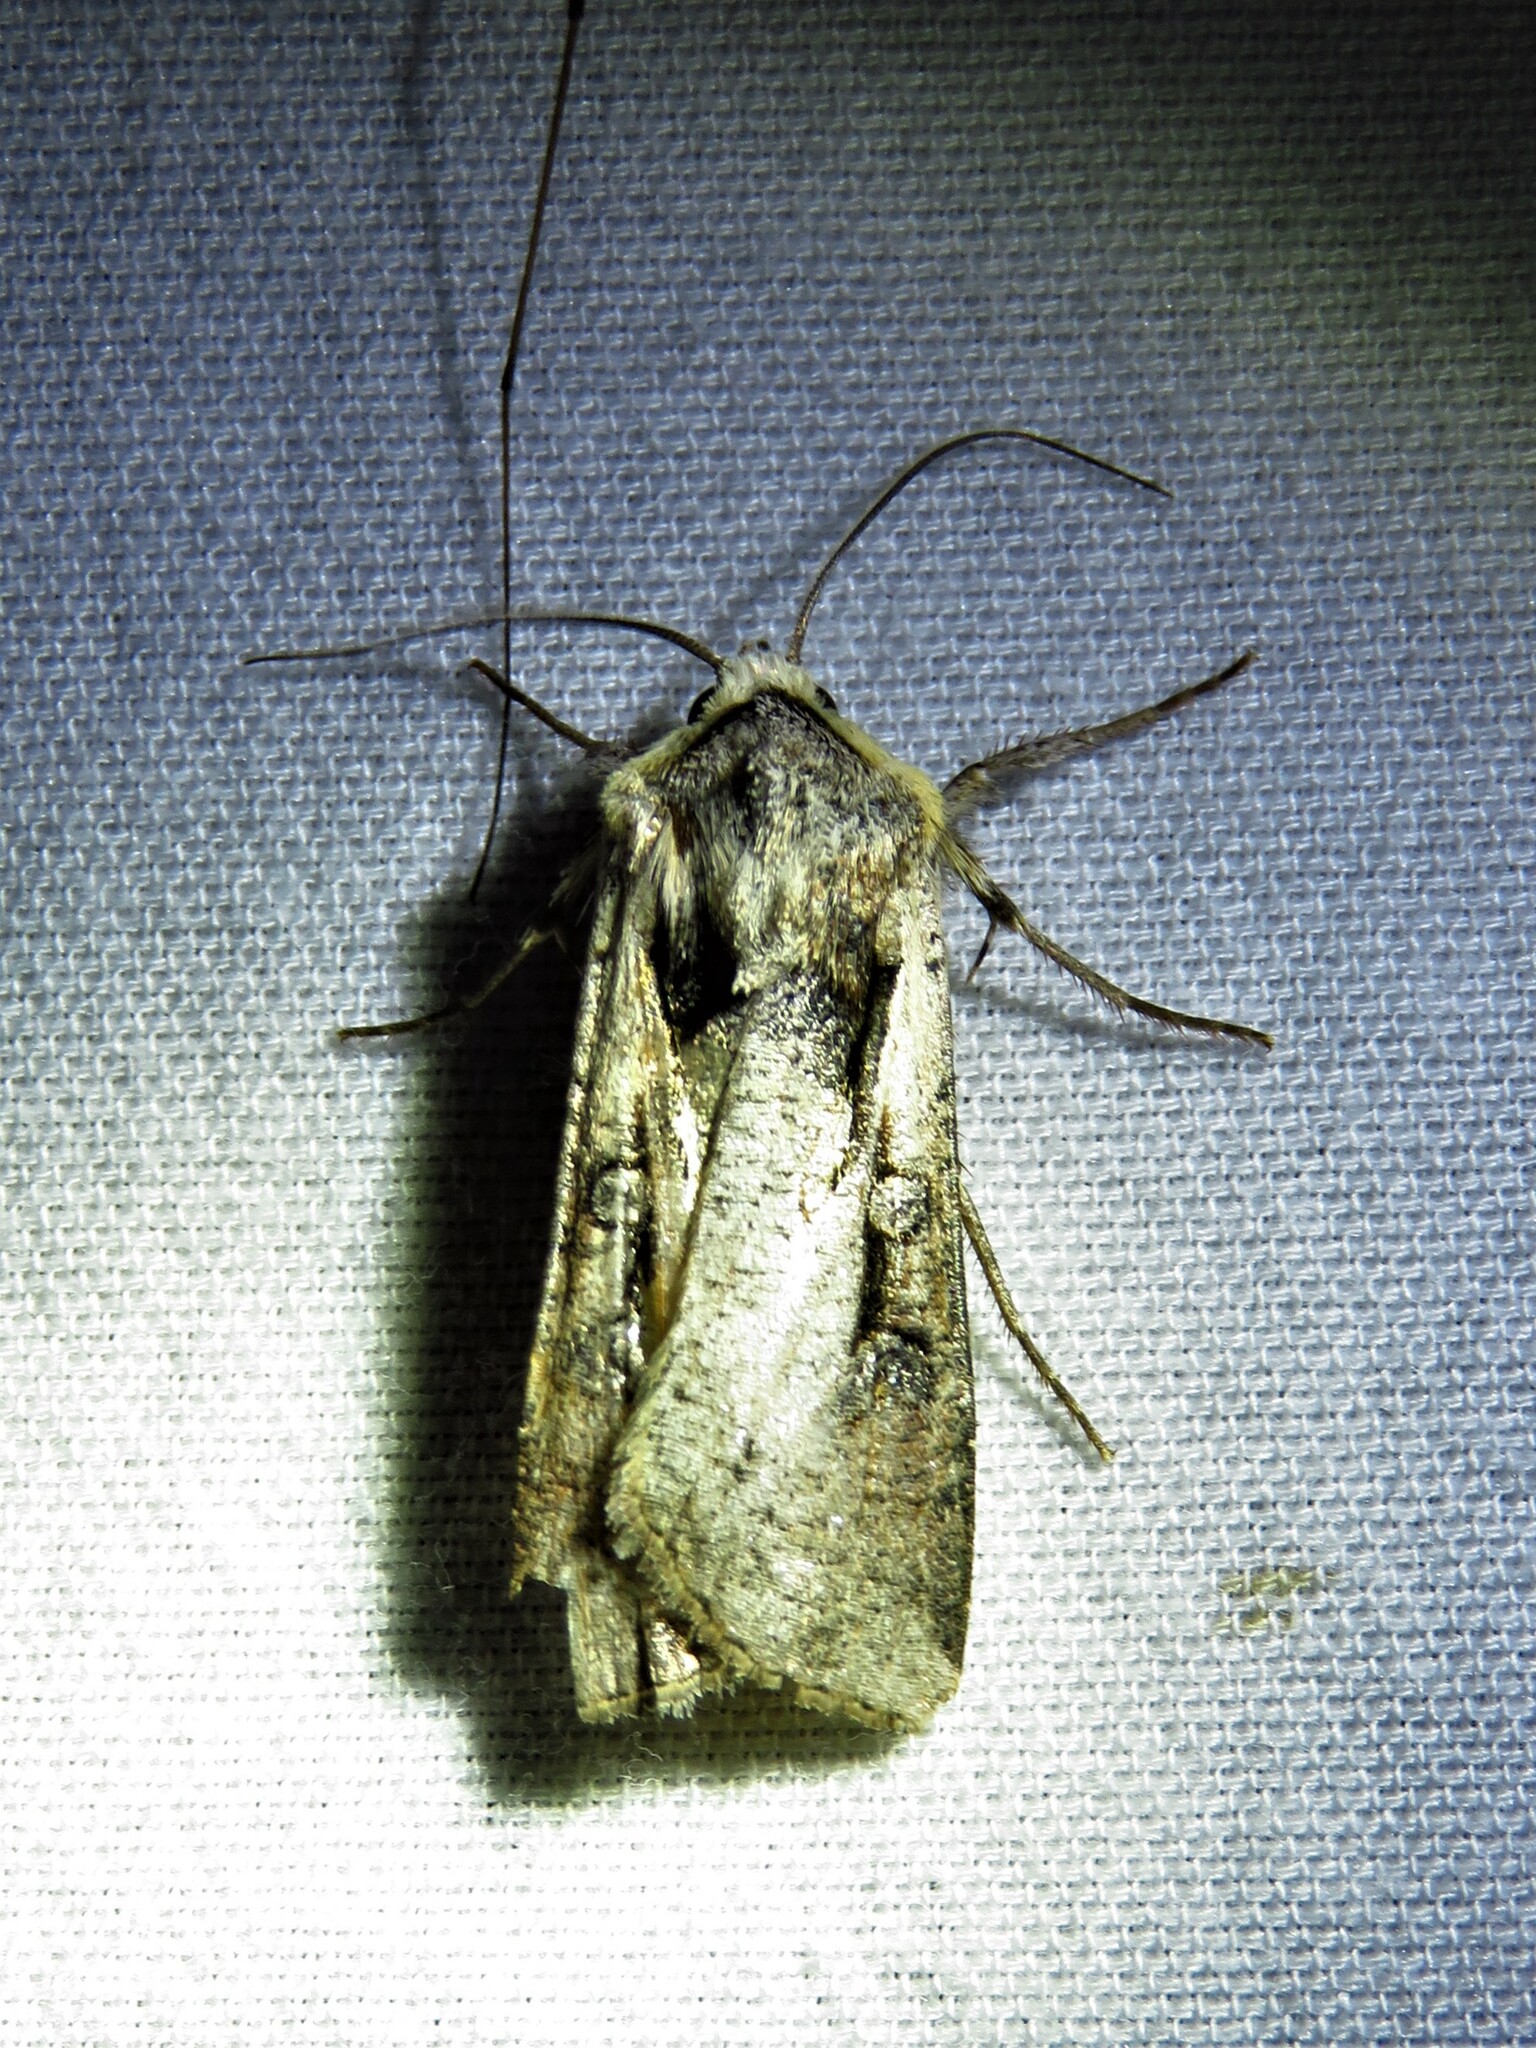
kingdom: Animalia
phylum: Arthropoda
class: Insecta
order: Lepidoptera
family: Noctuidae
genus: Hemieuxoa
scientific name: Hemieuxoa rudens
